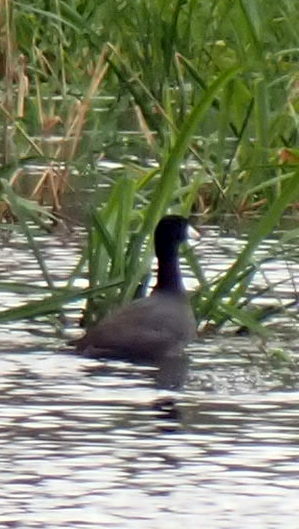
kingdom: Animalia
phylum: Chordata
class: Aves
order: Gruiformes
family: Rallidae
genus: Fulica
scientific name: Fulica americana
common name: American coot
